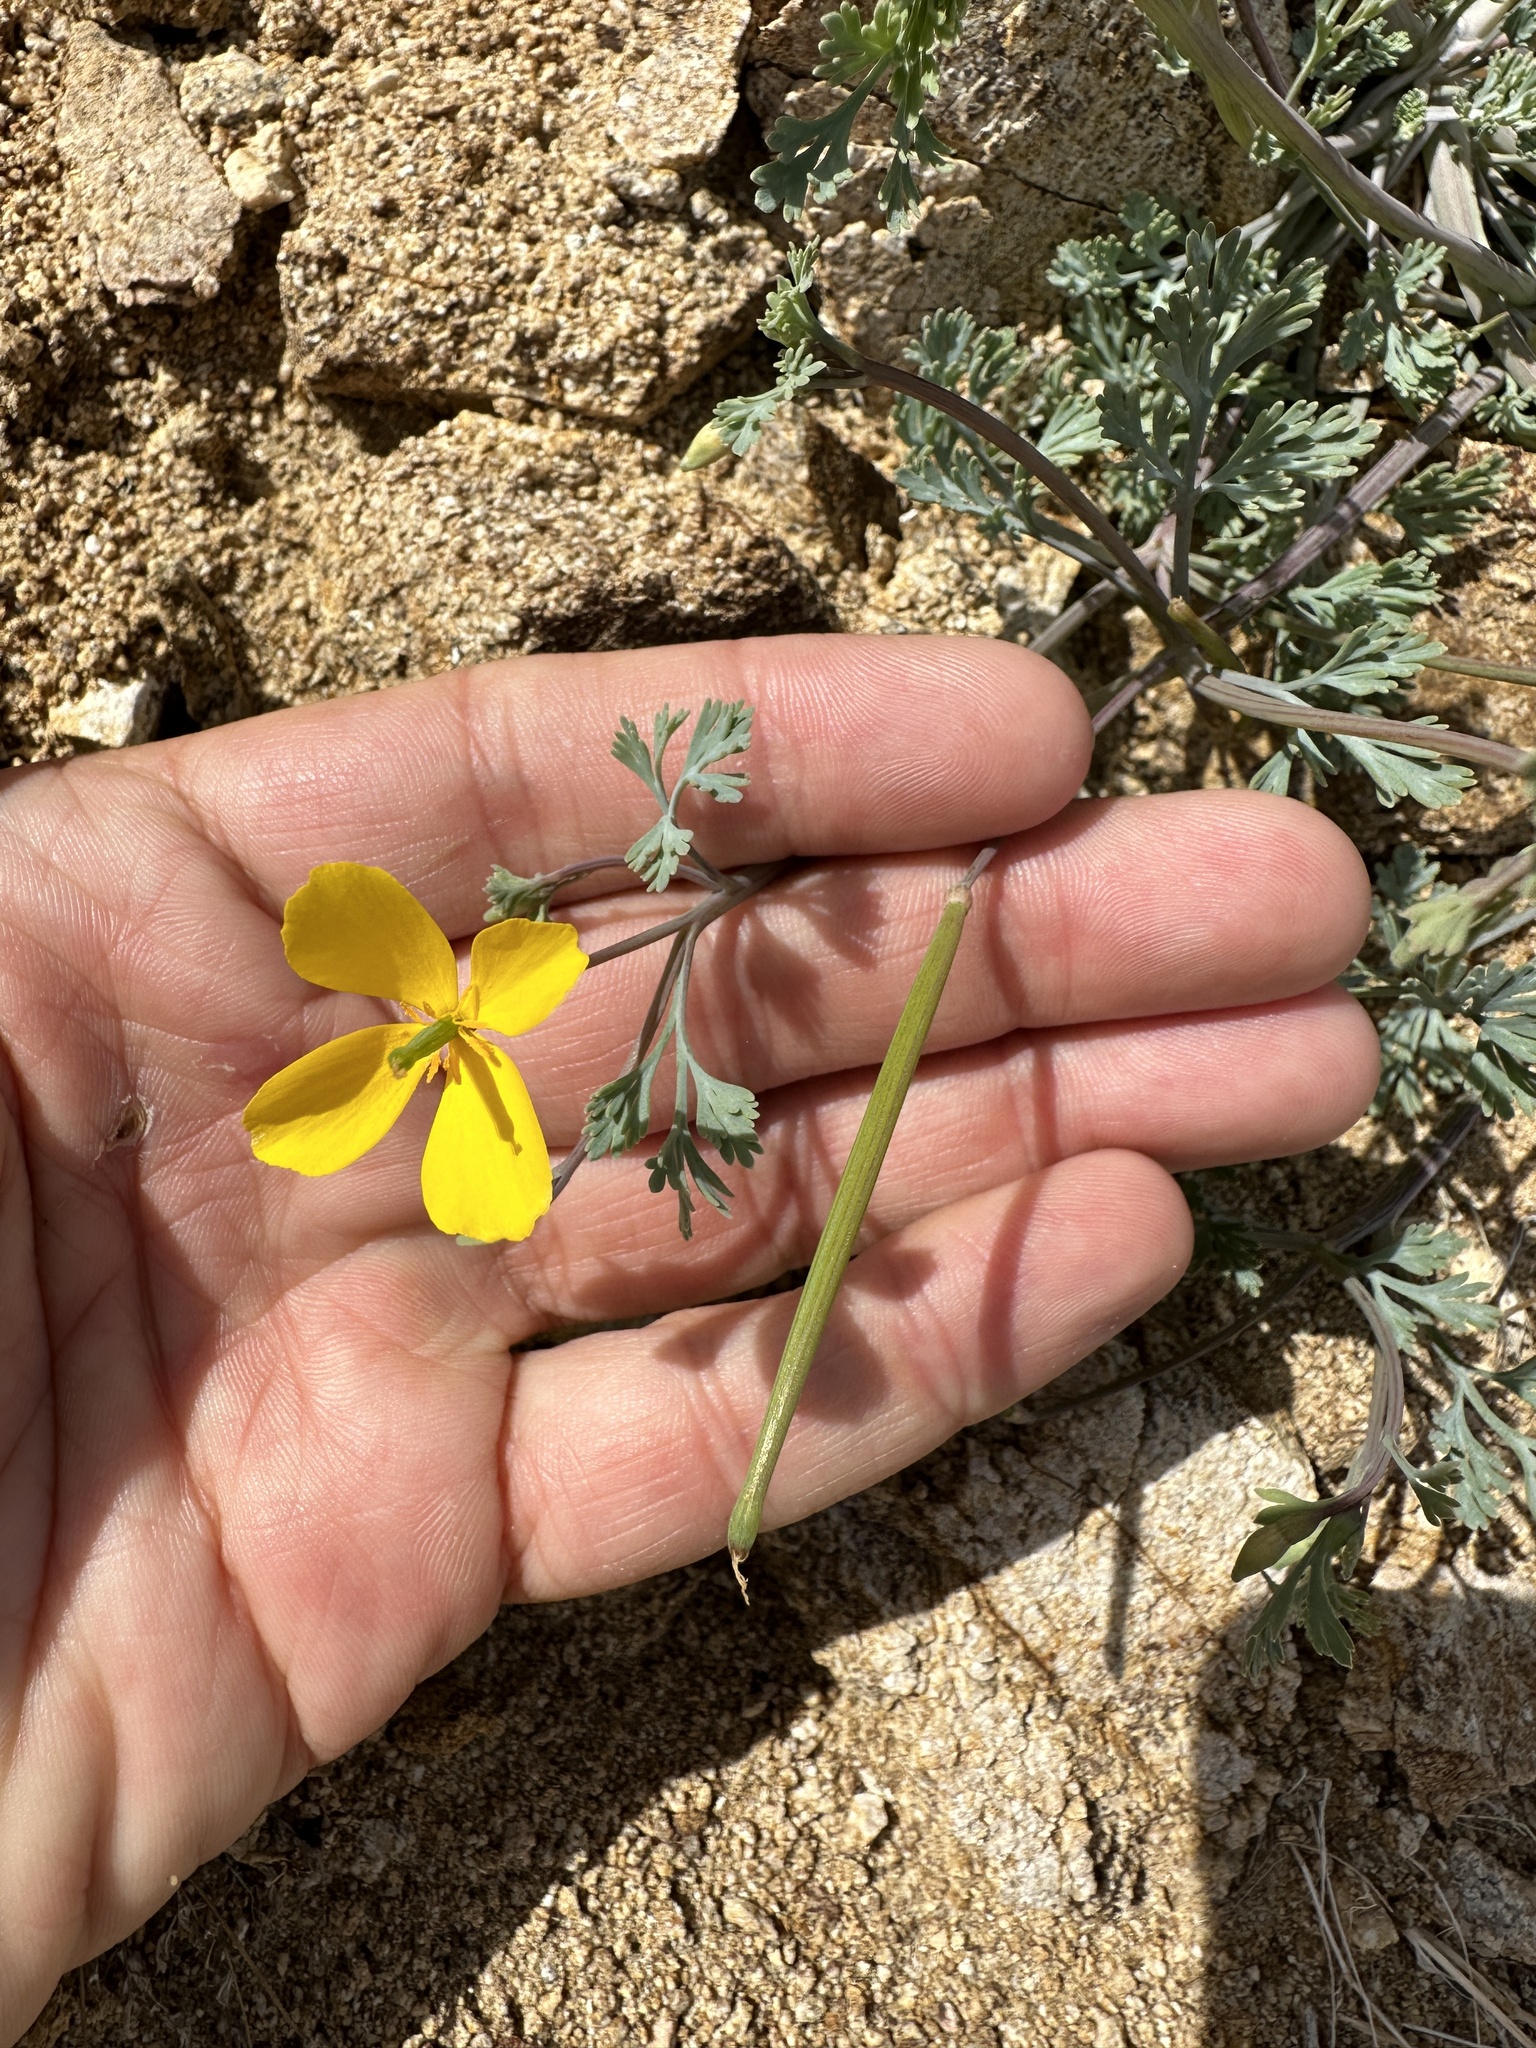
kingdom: Plantae
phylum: Tracheophyta
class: Magnoliopsida
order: Ranunculales
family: Papaveraceae
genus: Eschscholzia
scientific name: Eschscholzia minutiflora
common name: Small-flower california-poppy
